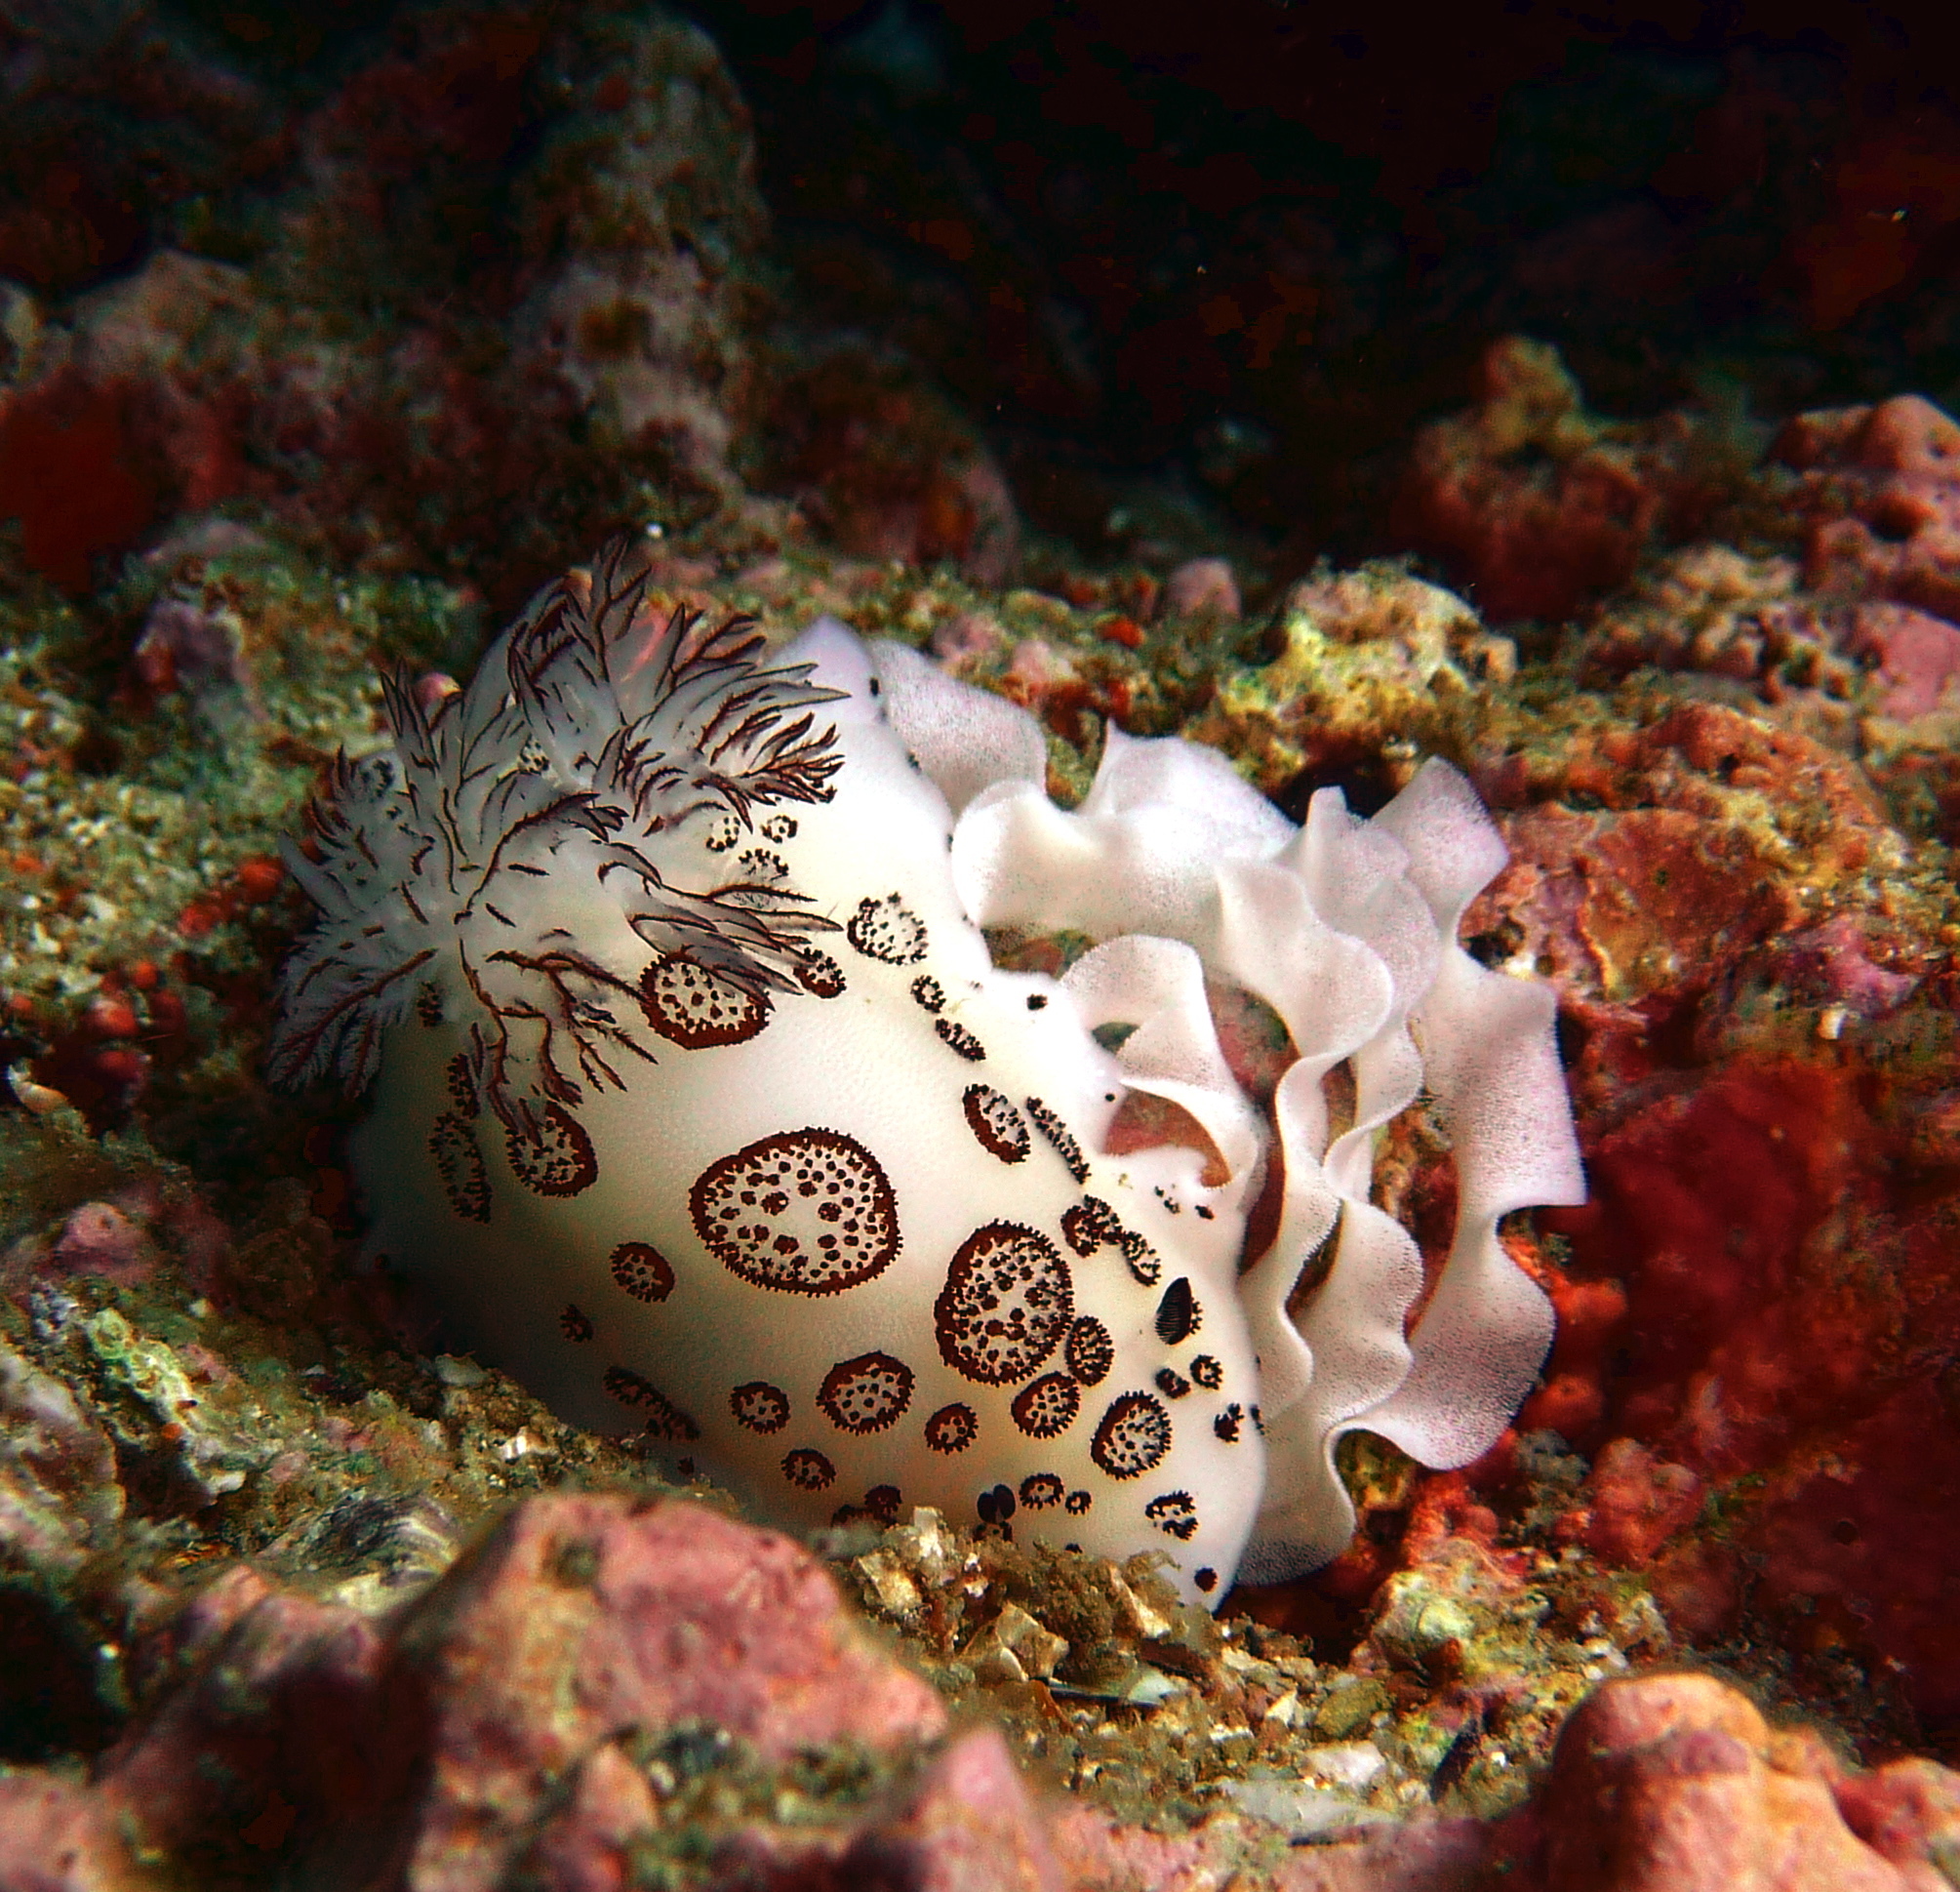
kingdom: Animalia
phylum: Mollusca
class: Gastropoda
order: Nudibranchia
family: Discodorididae
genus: Jorunna
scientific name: Jorunna funebris
